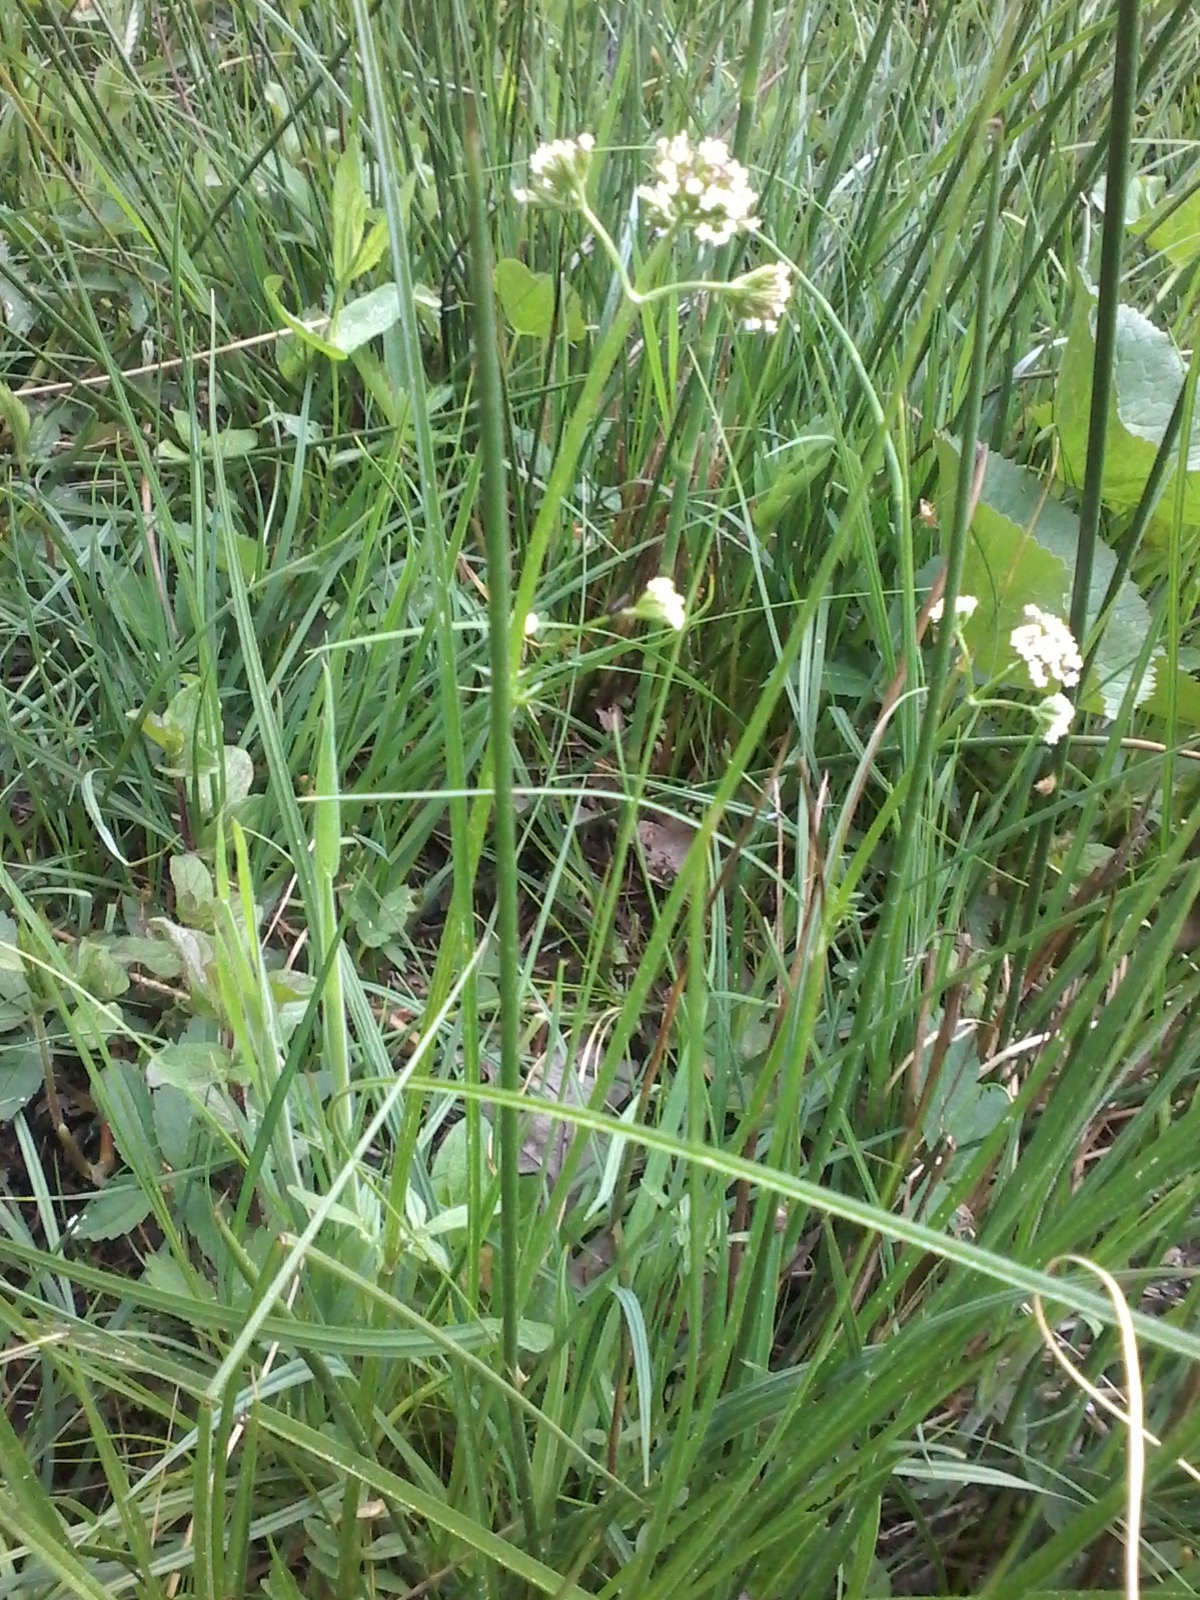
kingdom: Plantae
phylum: Tracheophyta
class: Magnoliopsida
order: Dipsacales
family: Caprifoliaceae
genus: Valeriana
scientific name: Valeriana dioica
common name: Marsh valerian
